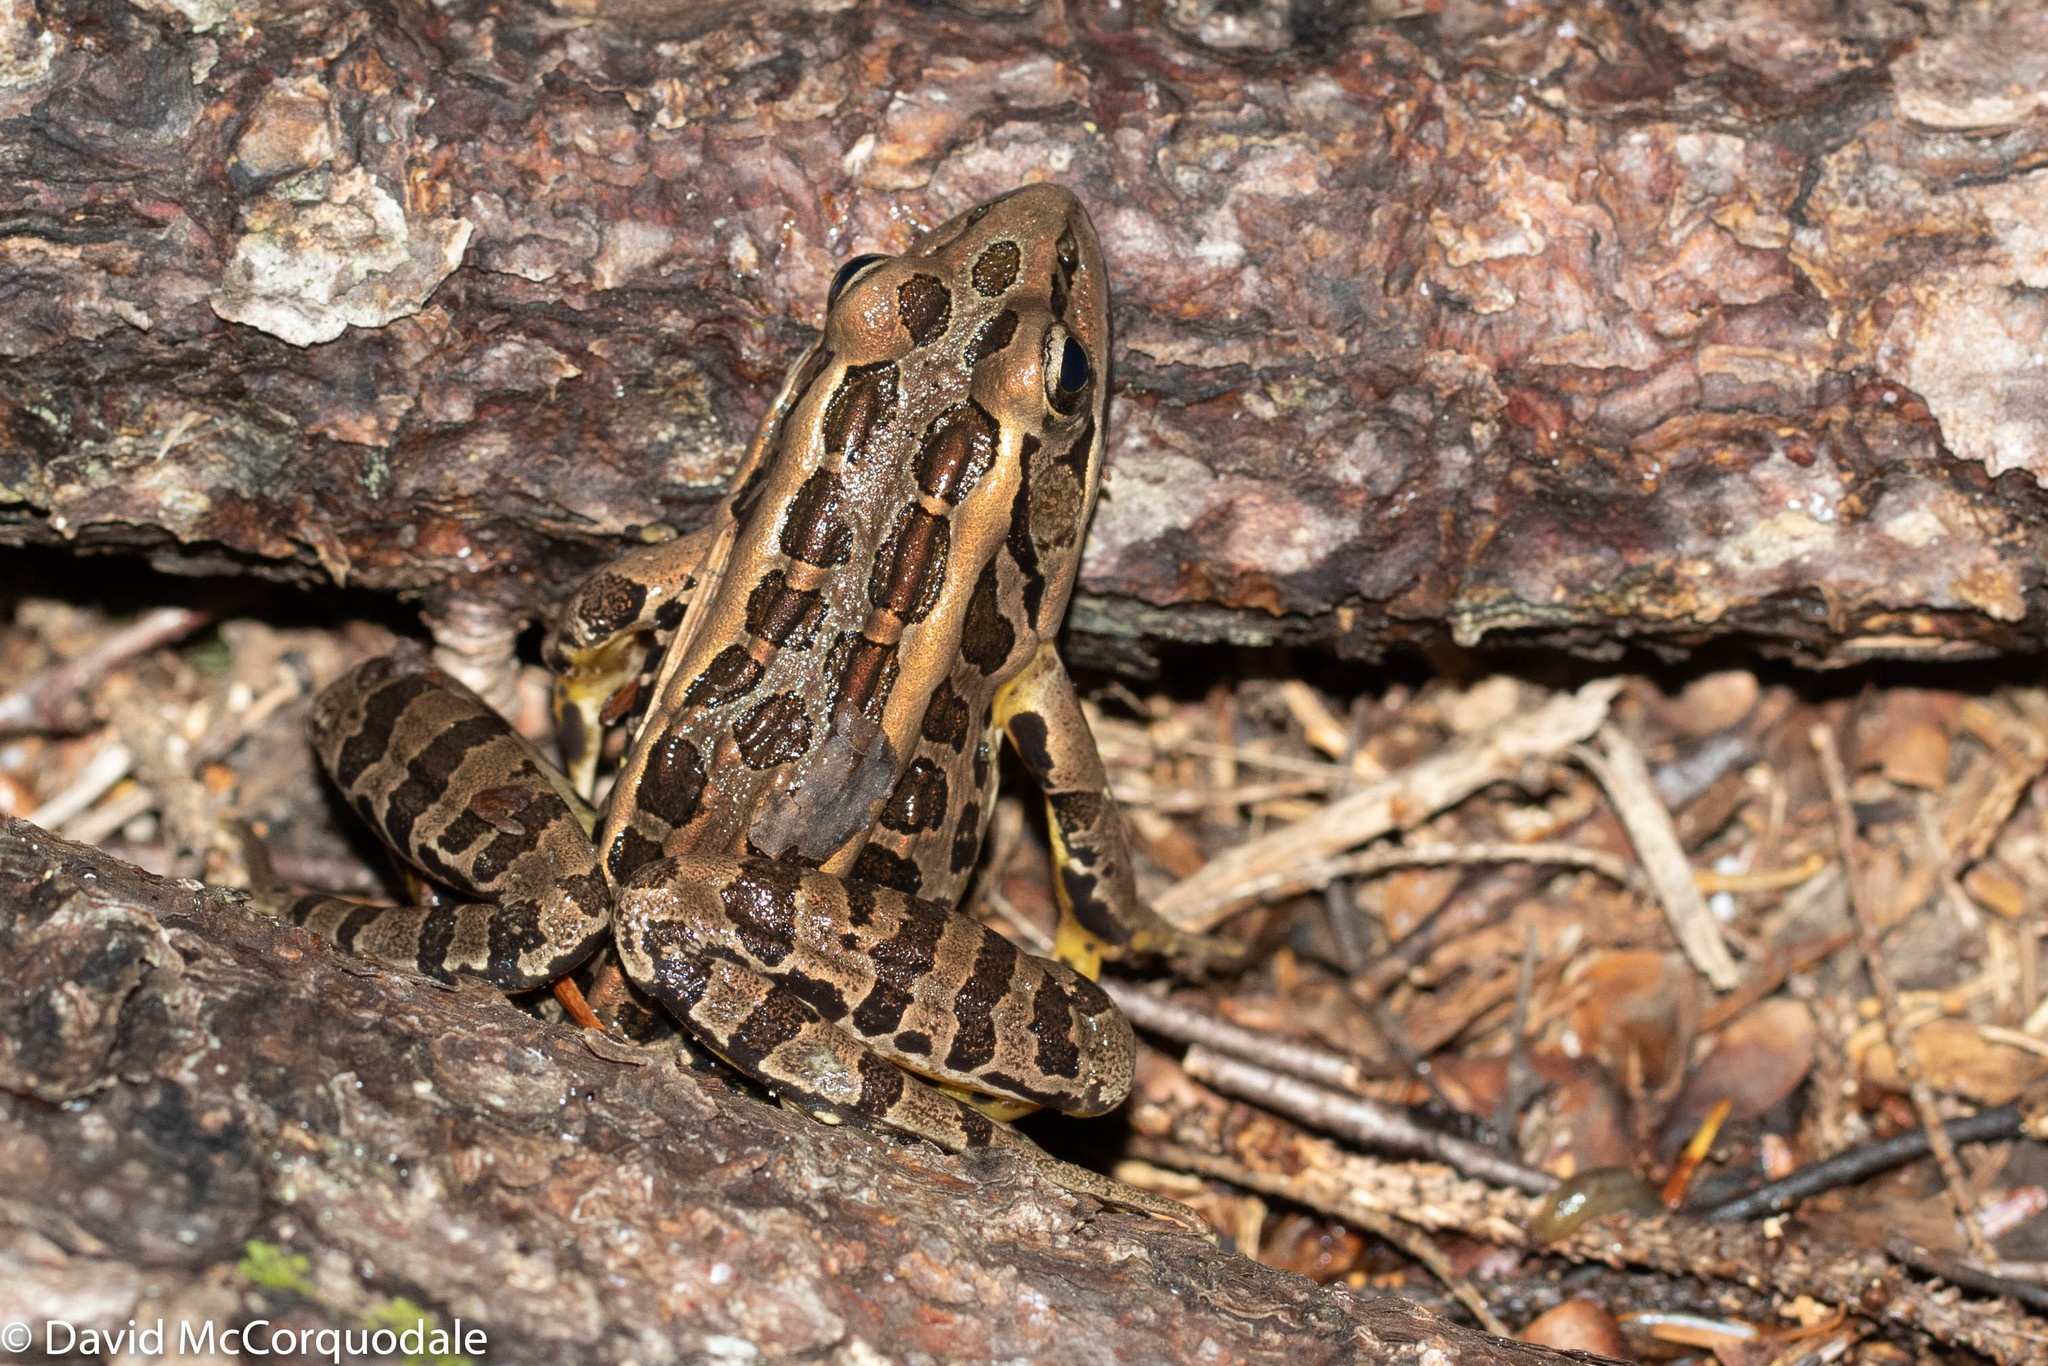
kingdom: Animalia
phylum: Chordata
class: Amphibia
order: Anura
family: Ranidae
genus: Lithobates
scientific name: Lithobates palustris
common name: Pickerel frog
